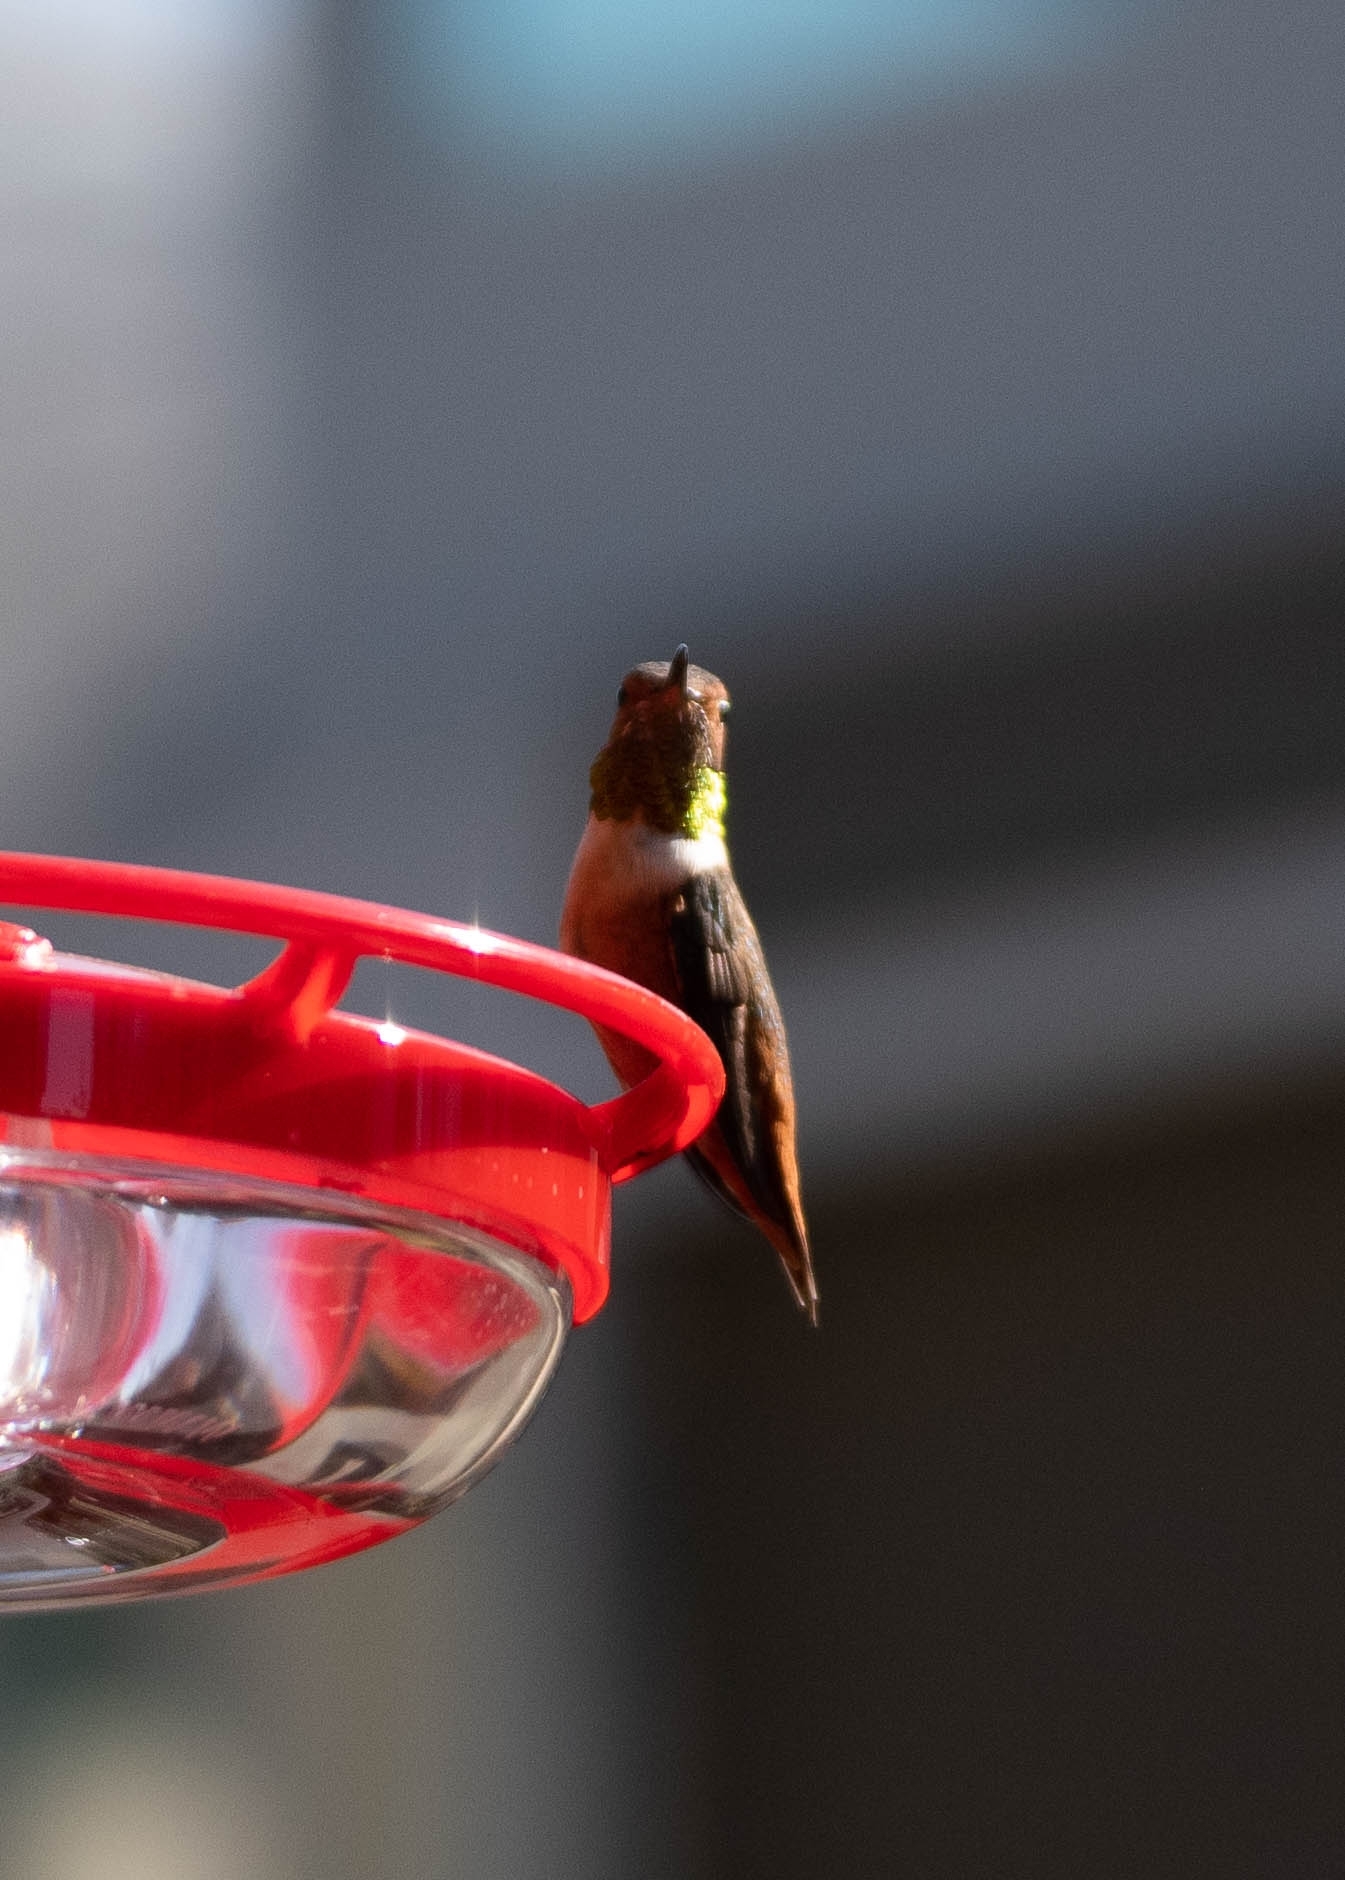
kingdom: Animalia
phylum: Chordata
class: Aves
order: Apodiformes
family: Trochilidae
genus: Selasphorus
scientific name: Selasphorus sasin
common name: Allen's hummingbird
